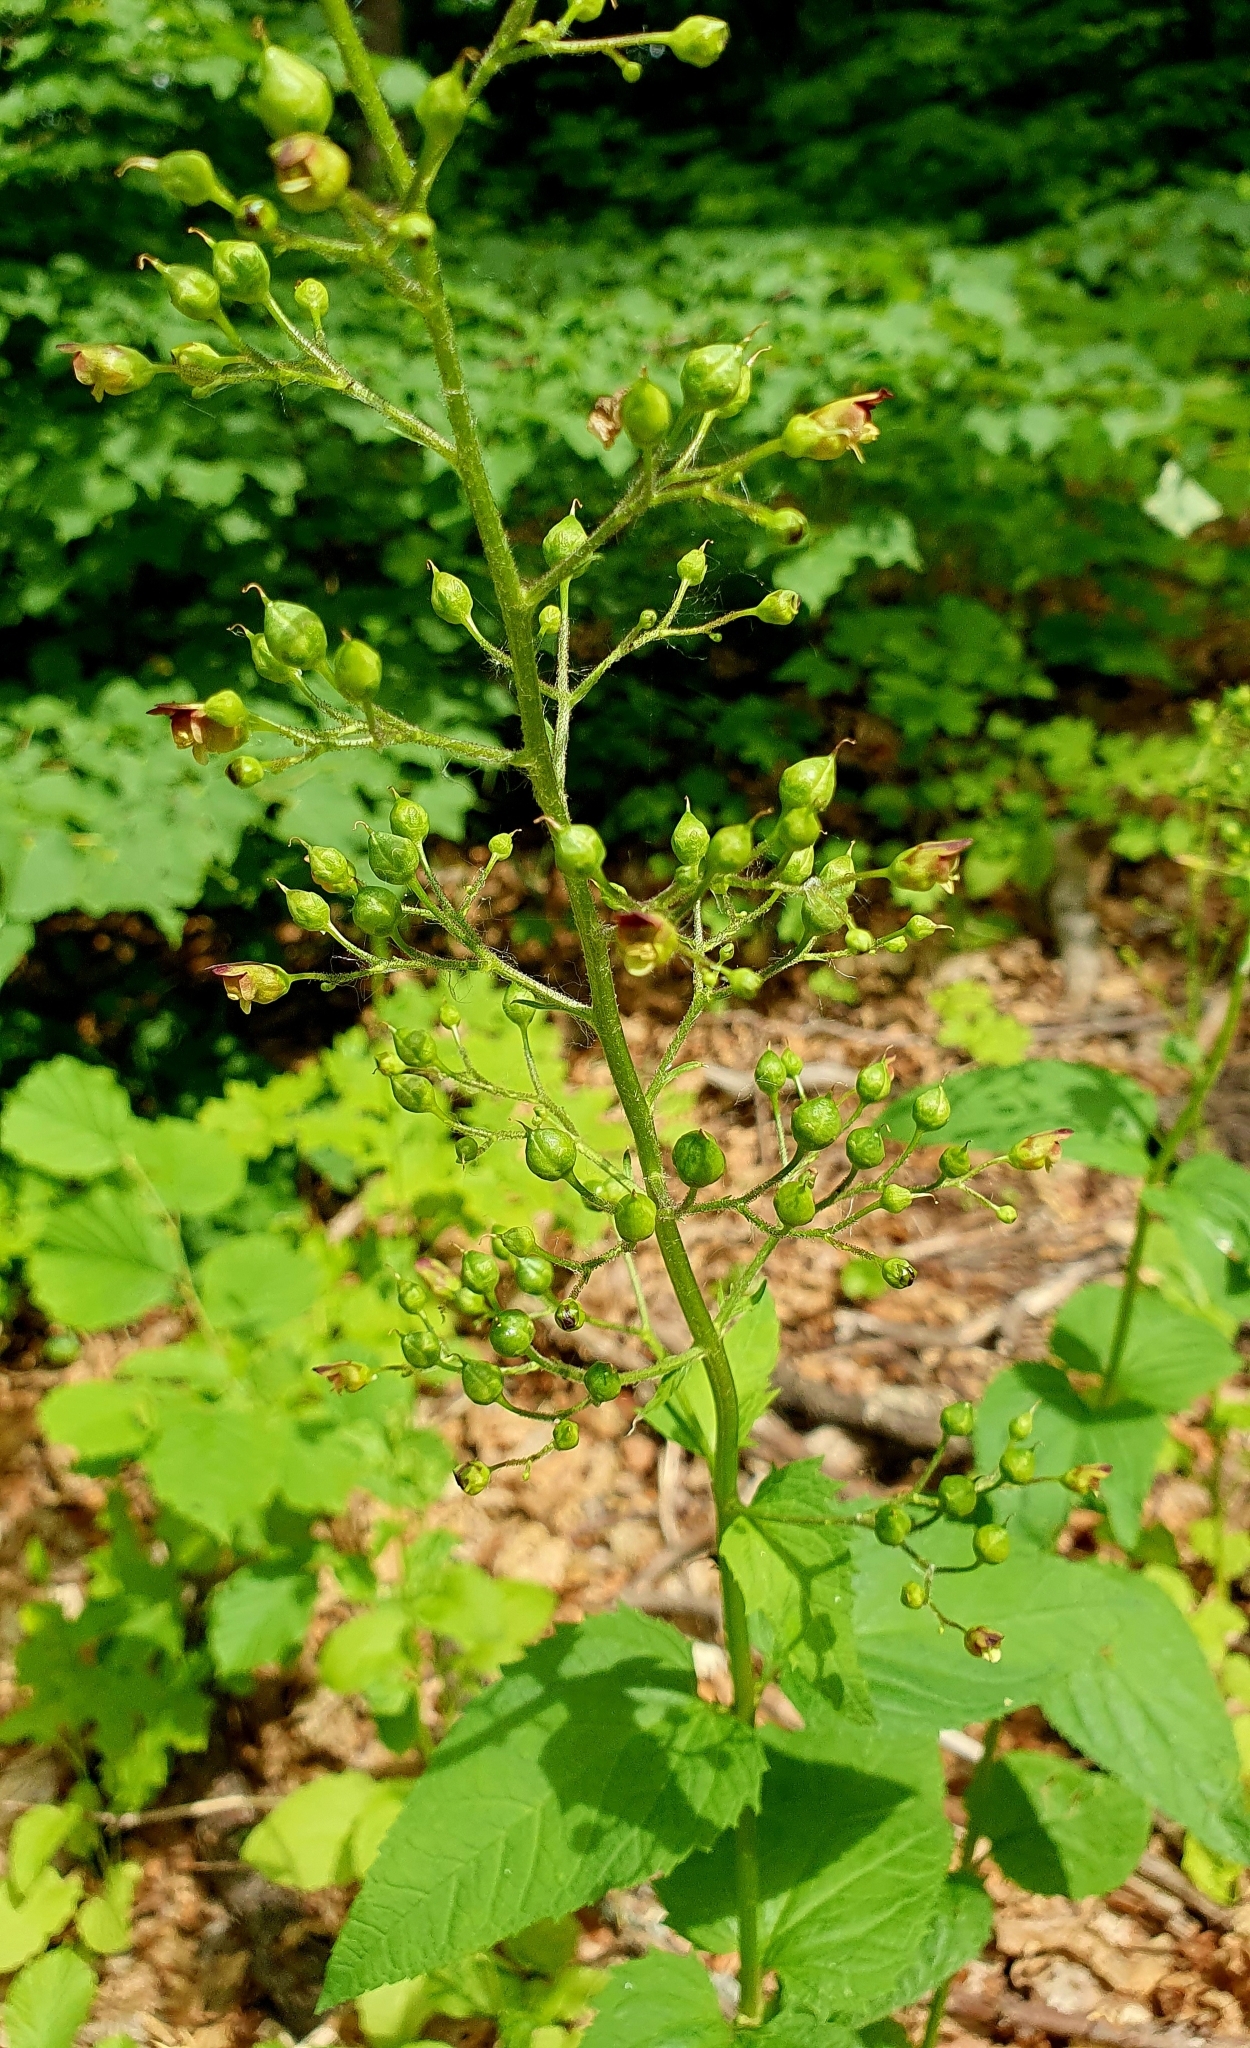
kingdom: Plantae
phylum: Tracheophyta
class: Magnoliopsida
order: Lamiales
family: Scrophulariaceae
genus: Scrophularia
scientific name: Scrophularia nodosa
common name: Common figwort
